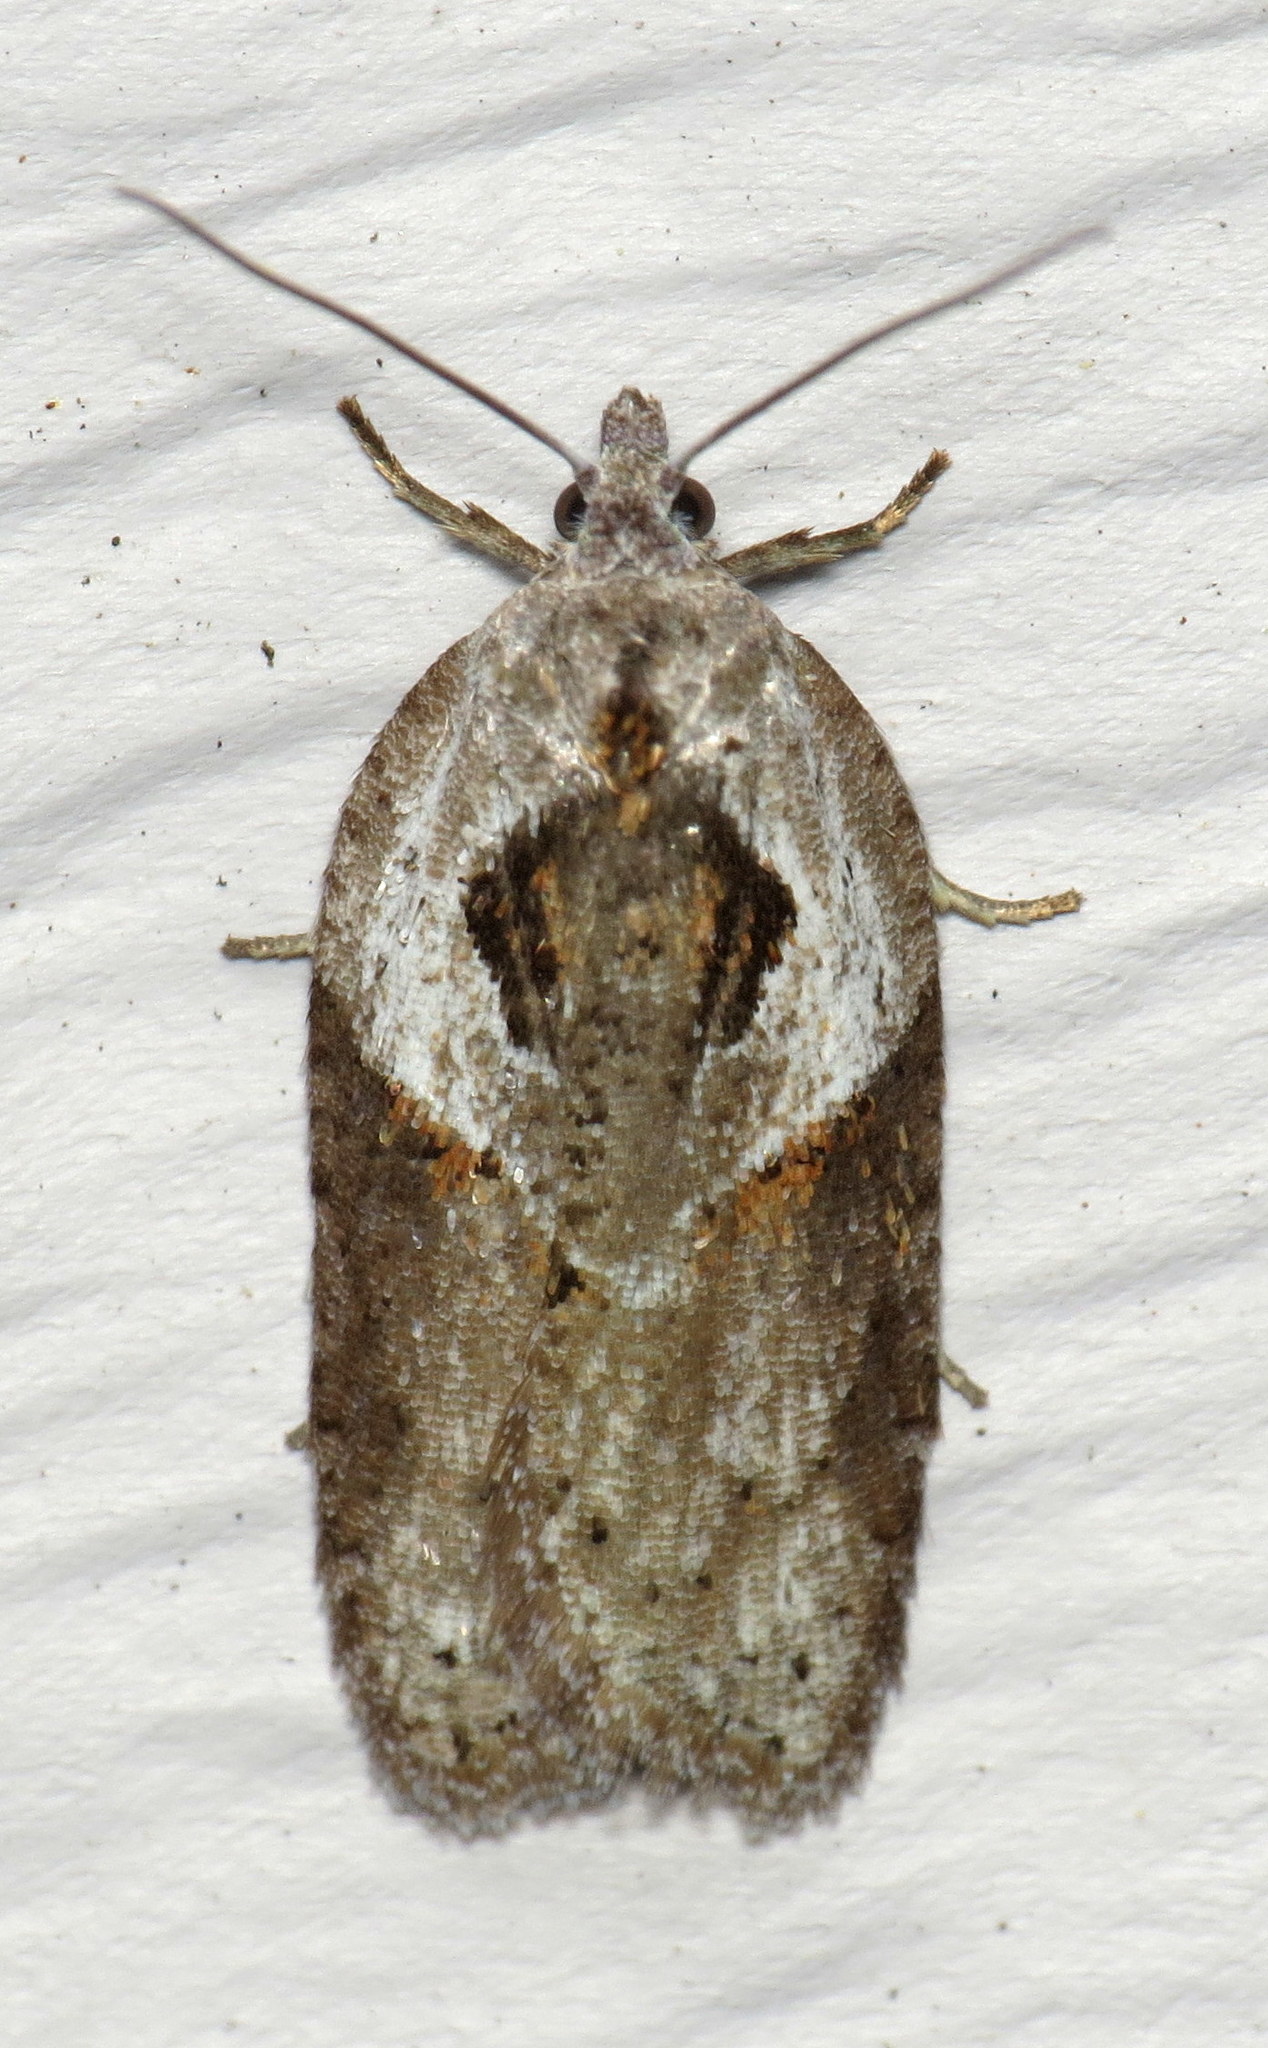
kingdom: Animalia
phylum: Arthropoda
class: Insecta
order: Lepidoptera
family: Tortricidae
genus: Acleris
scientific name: Acleris maculidorsana
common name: Stained-back leafroller moth
